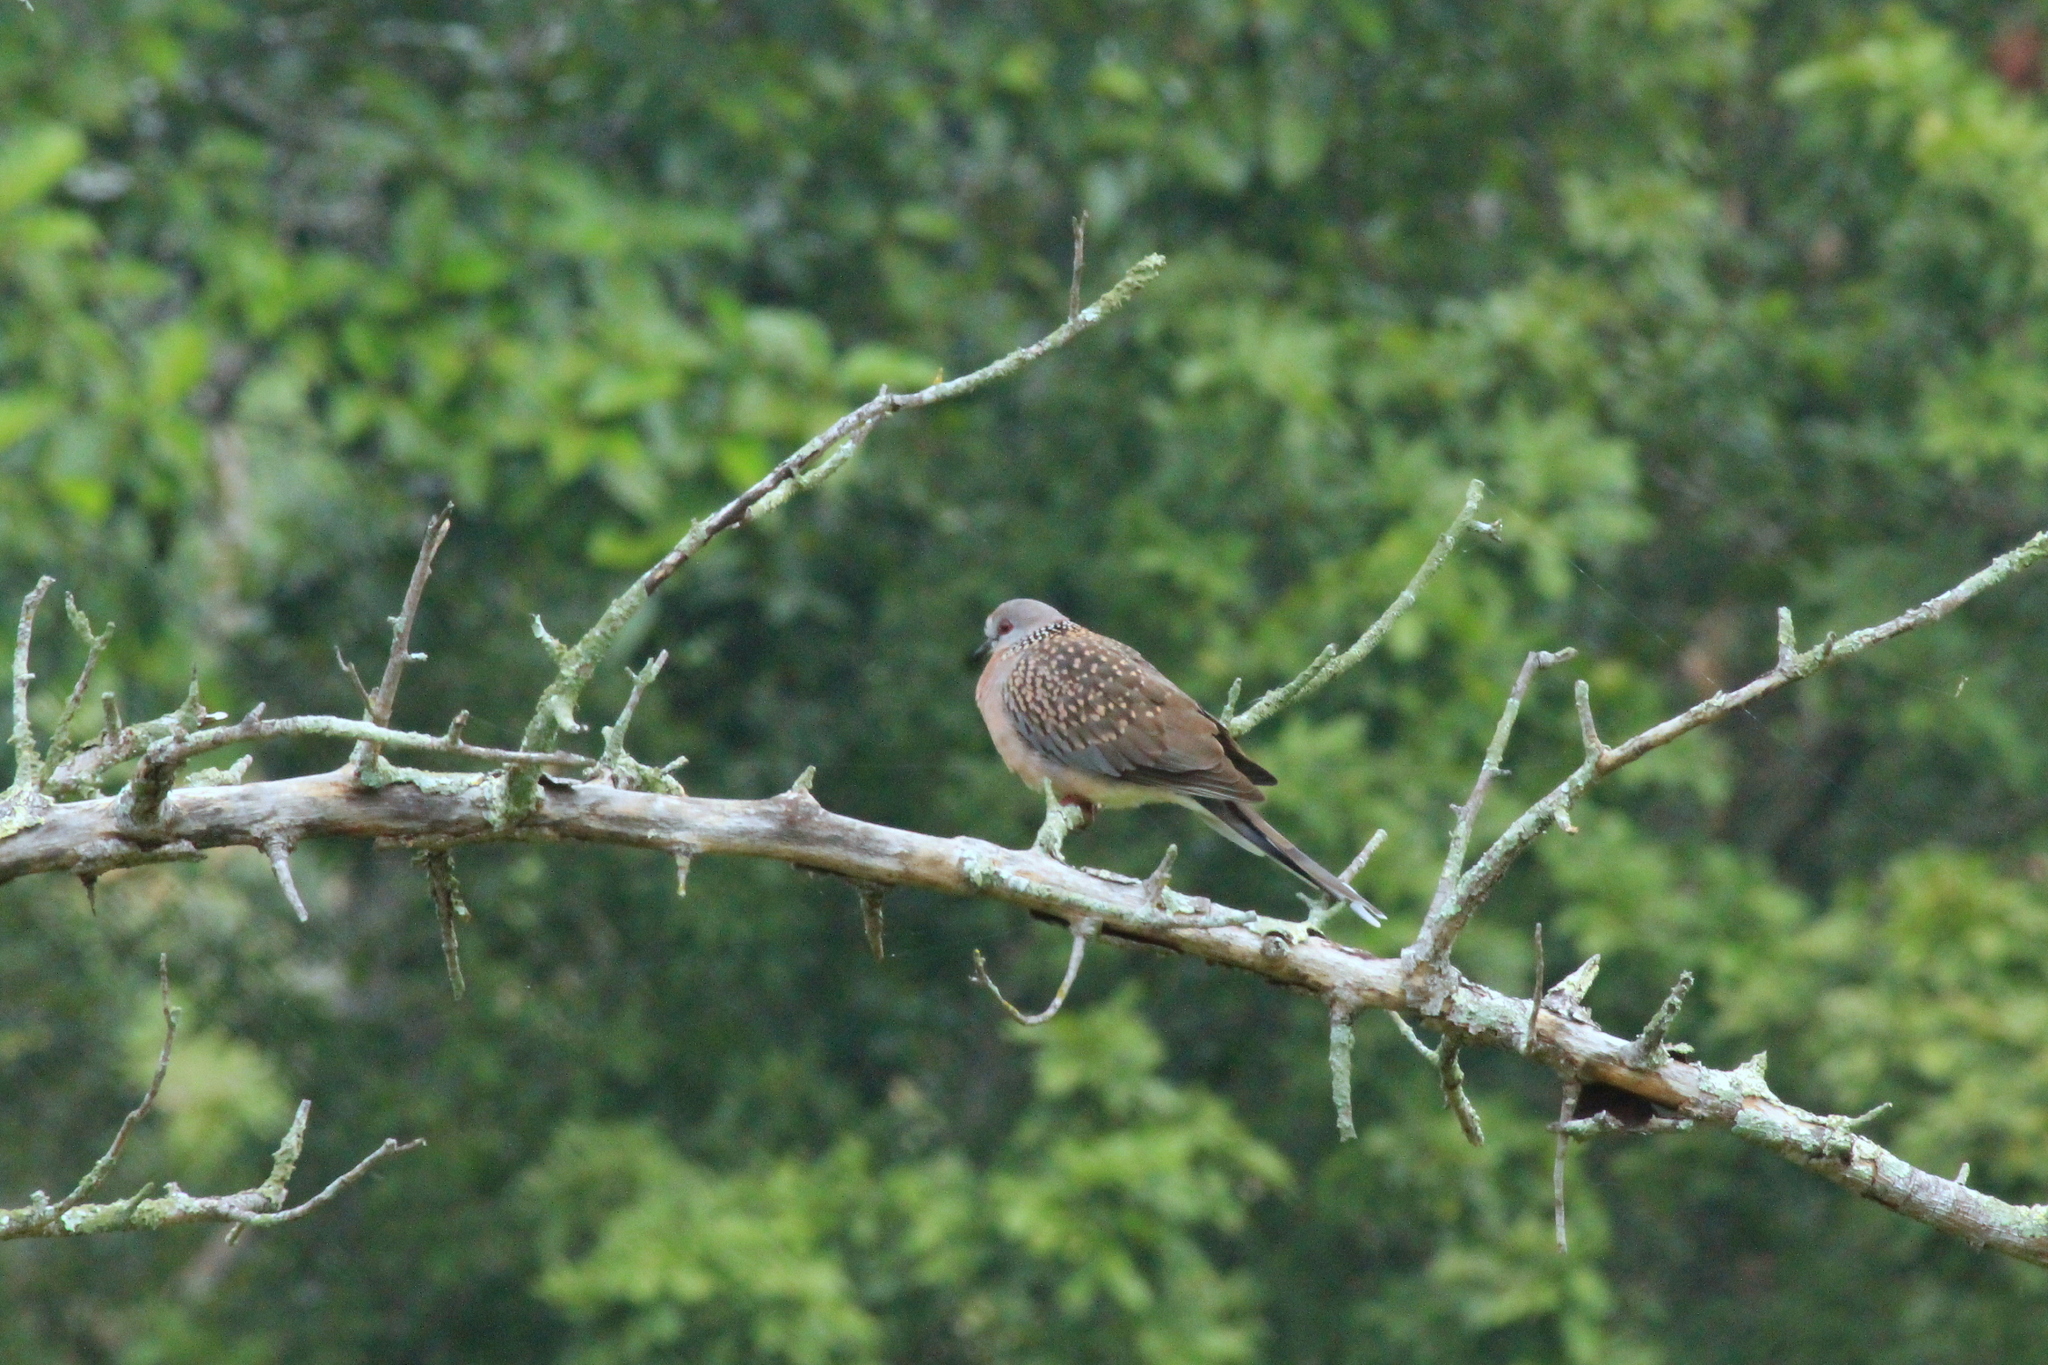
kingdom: Animalia
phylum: Chordata
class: Aves
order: Columbiformes
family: Columbidae
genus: Spilopelia
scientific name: Spilopelia chinensis
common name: Spotted dove
